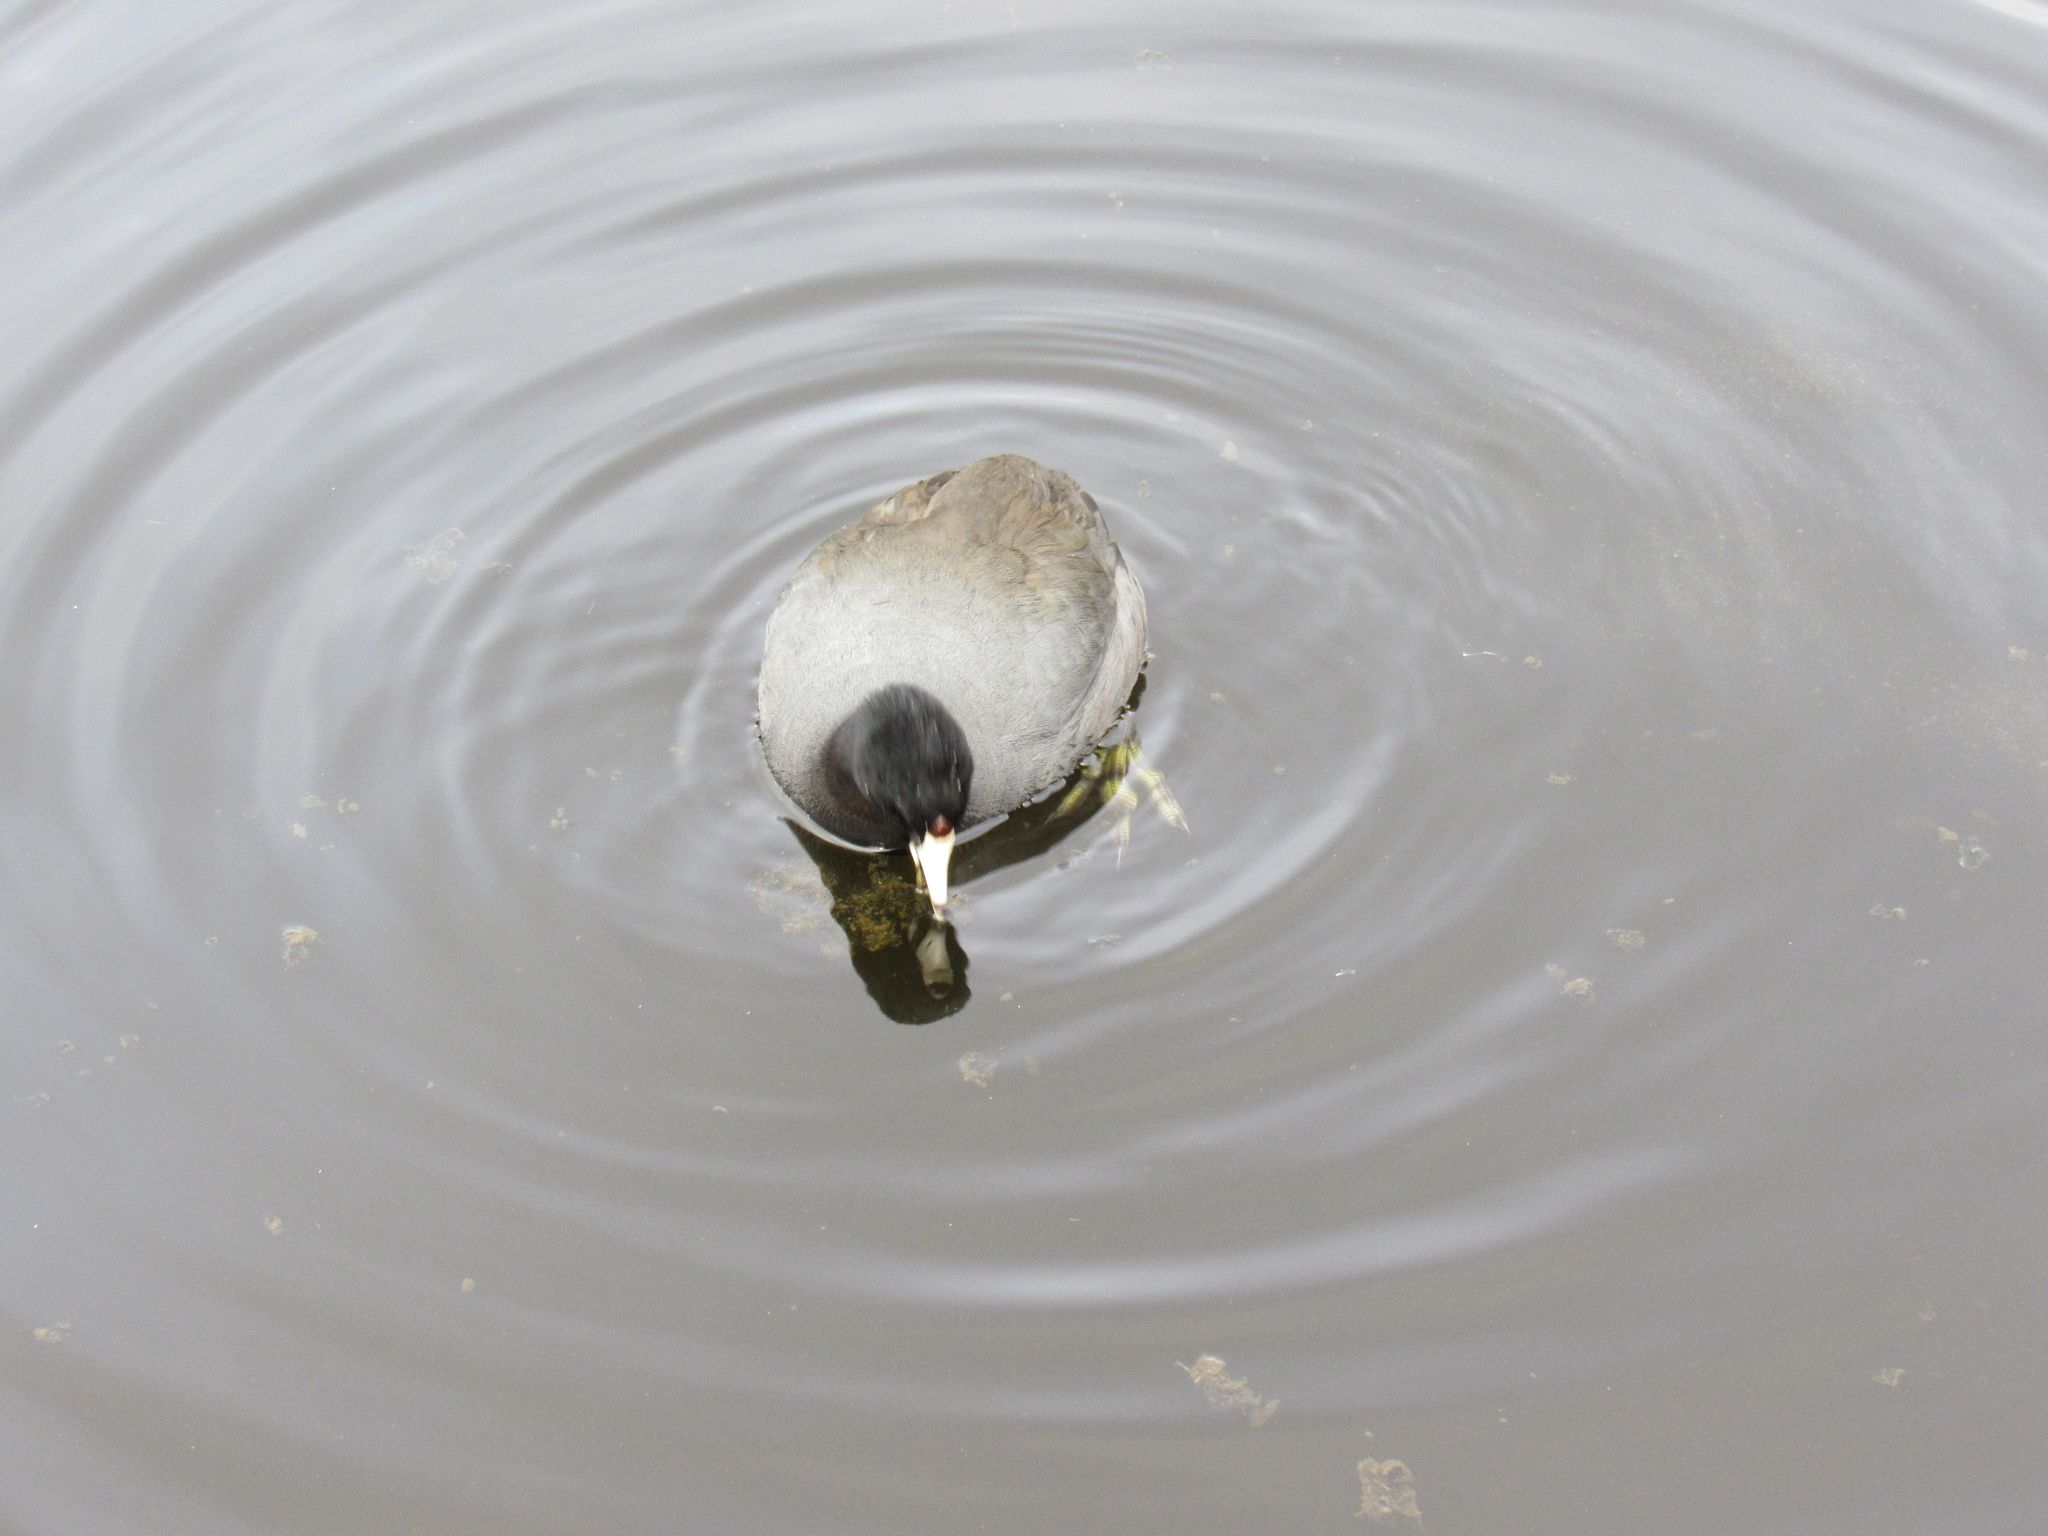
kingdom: Animalia
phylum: Chordata
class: Aves
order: Gruiformes
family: Rallidae
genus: Fulica
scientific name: Fulica americana
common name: American coot
